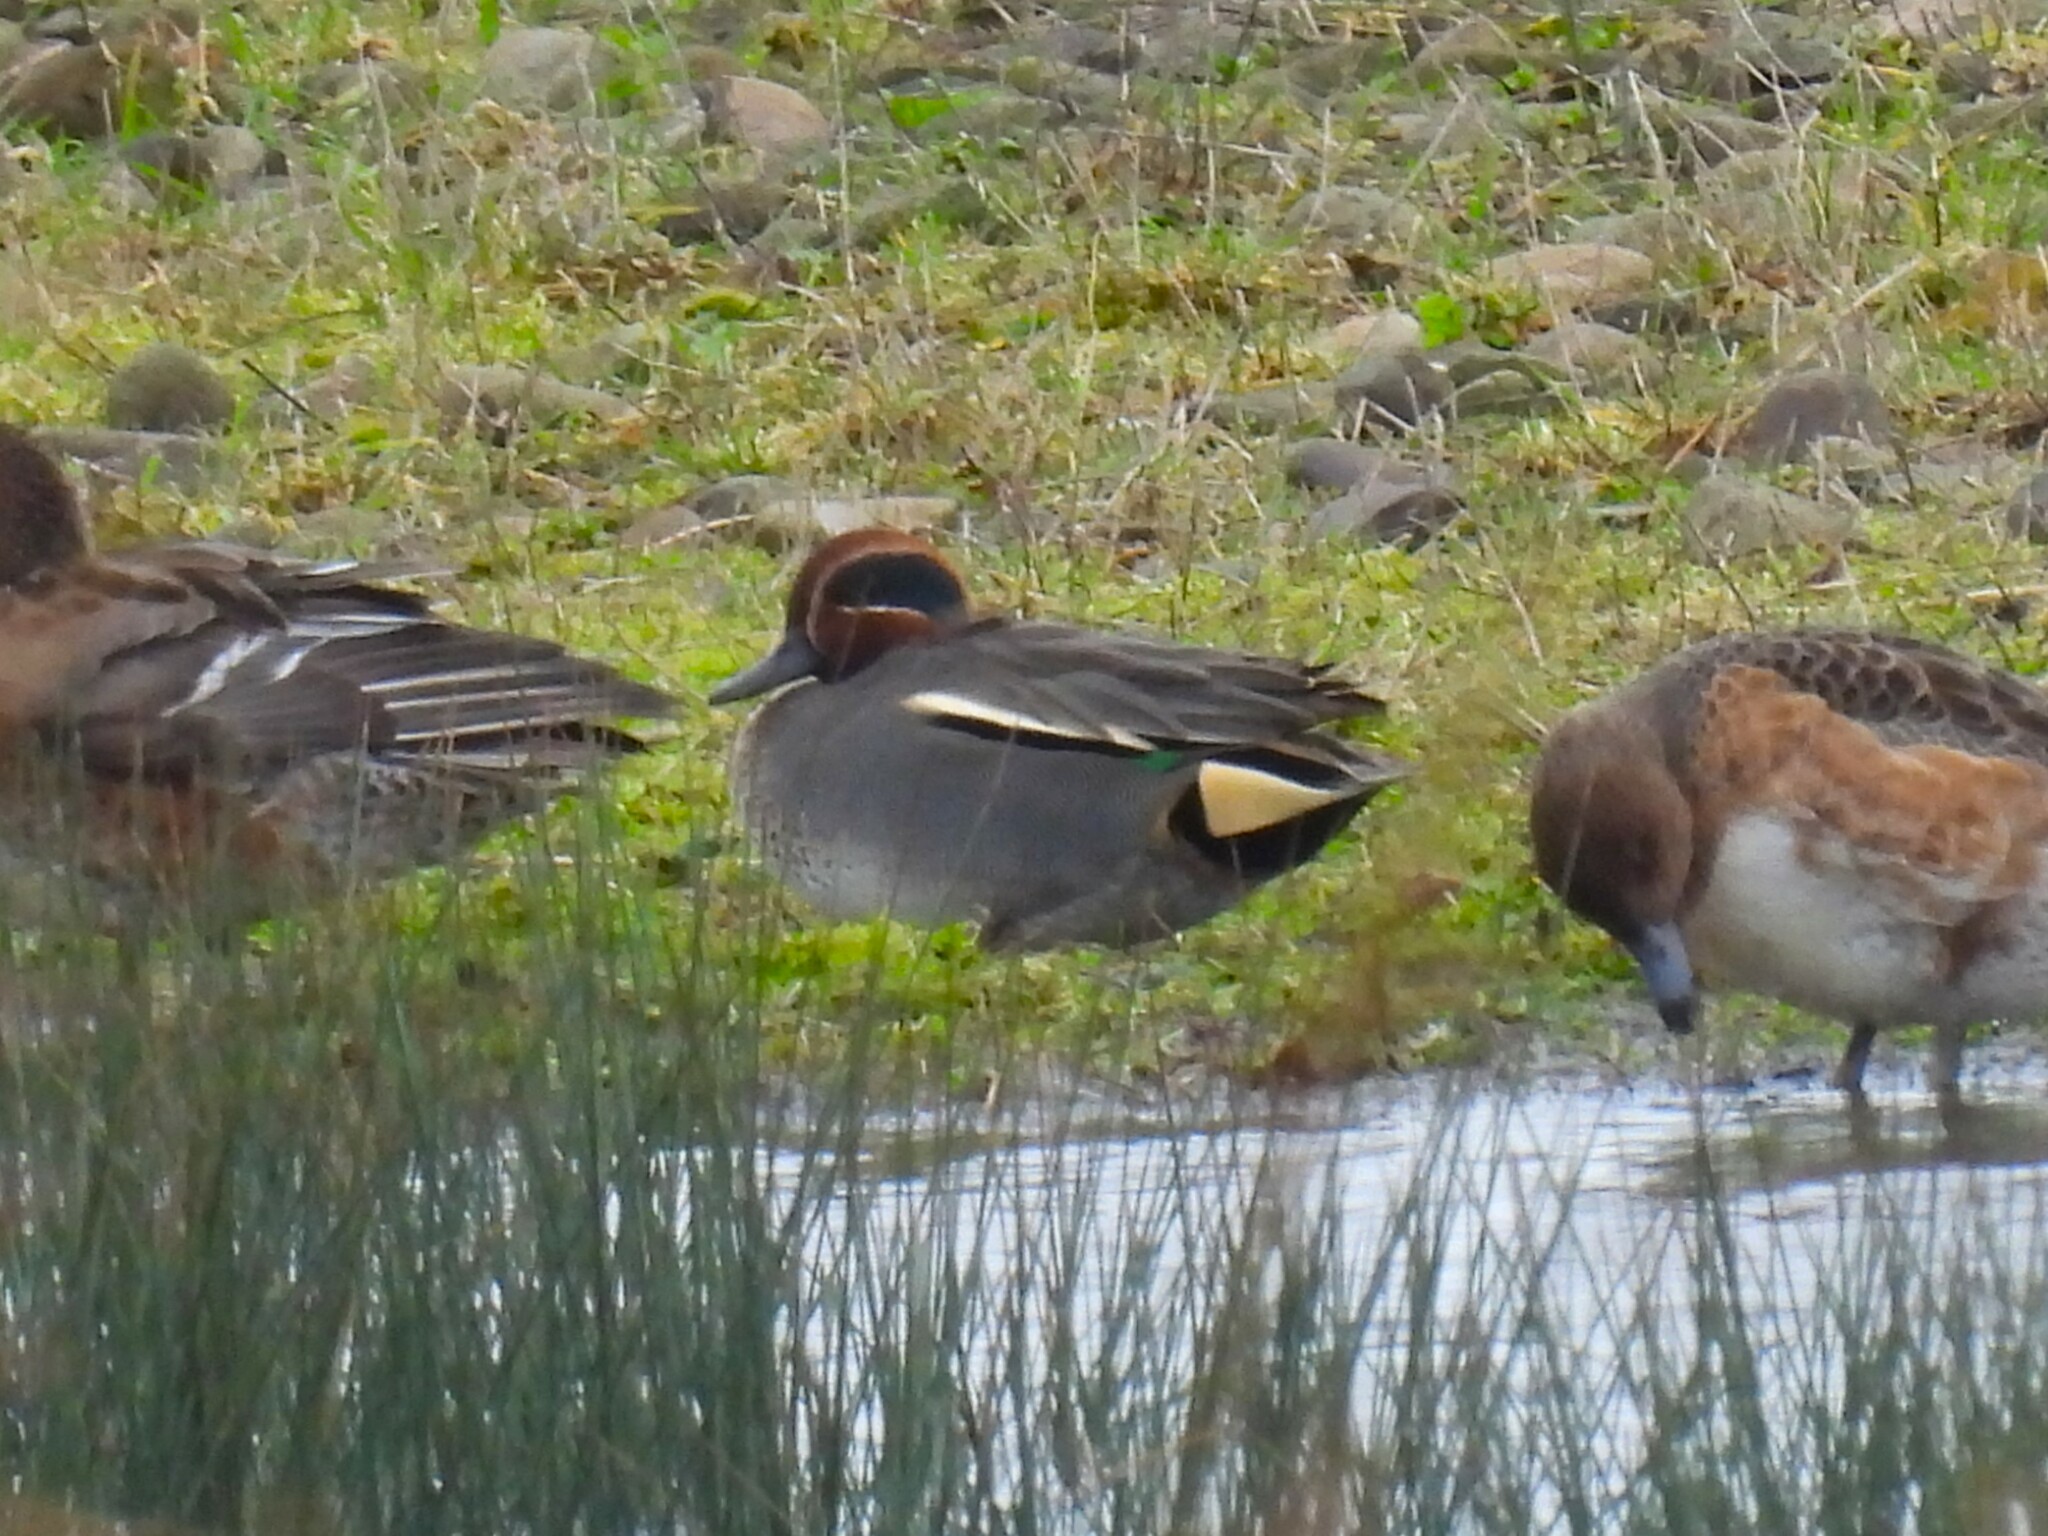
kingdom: Animalia
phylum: Chordata
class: Aves
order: Anseriformes
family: Anatidae
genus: Anas
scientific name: Anas crecca
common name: Eurasian teal
